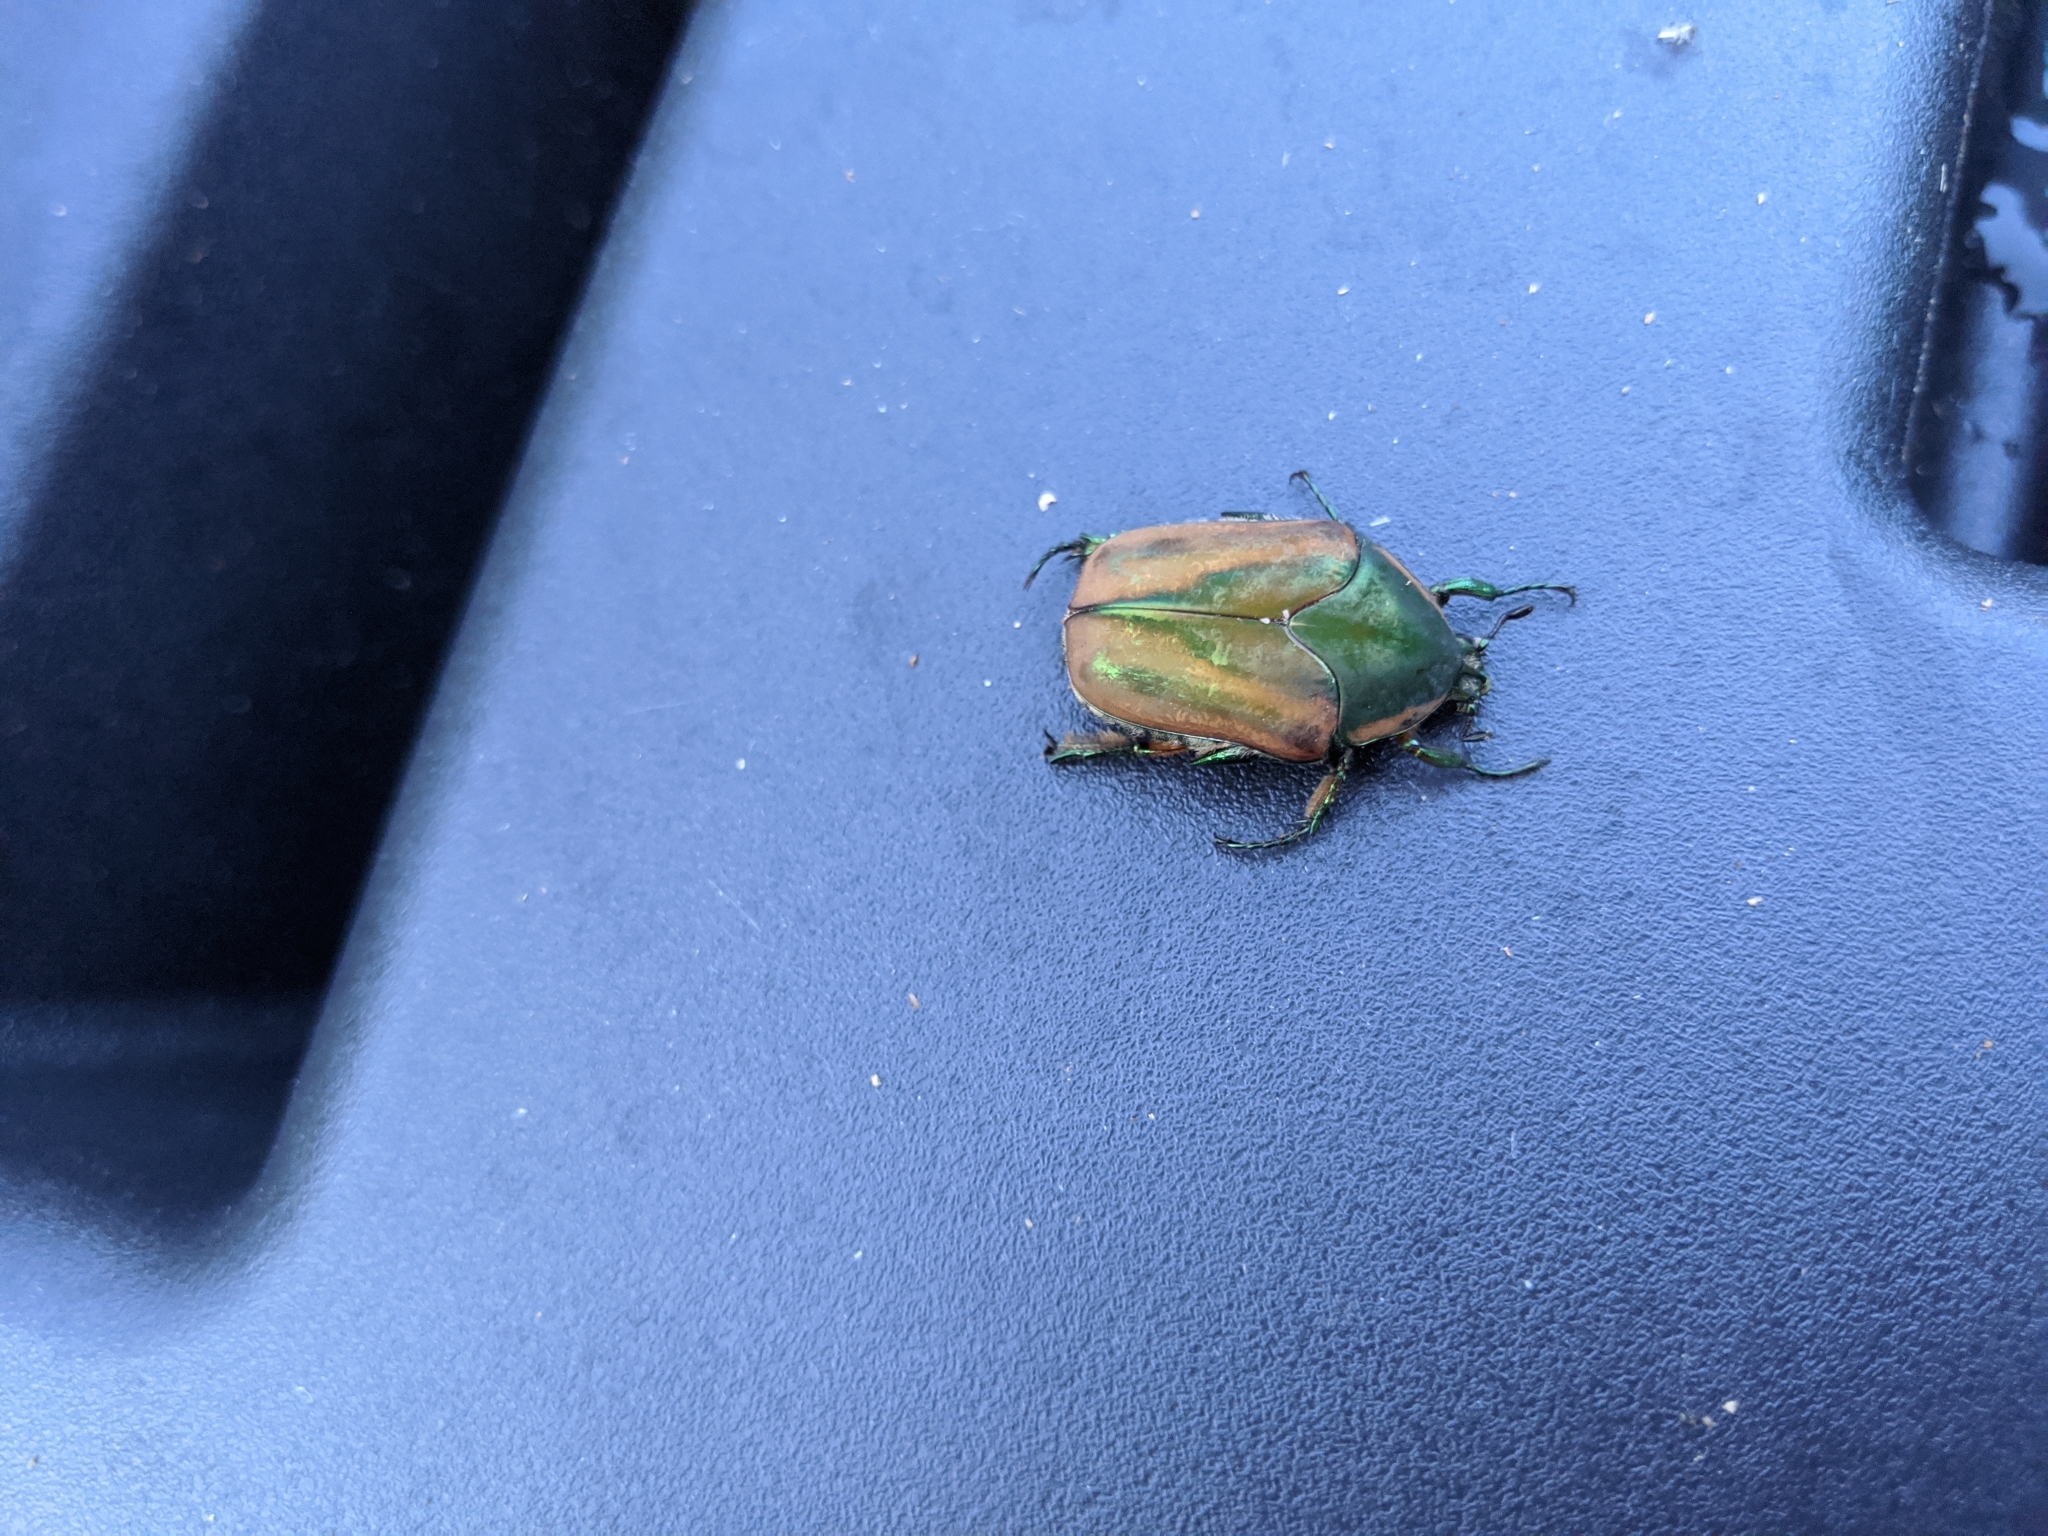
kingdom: Animalia
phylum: Arthropoda
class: Insecta
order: Coleoptera
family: Scarabaeidae
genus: Cotinis
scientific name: Cotinis nitida
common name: Common green june beetle
